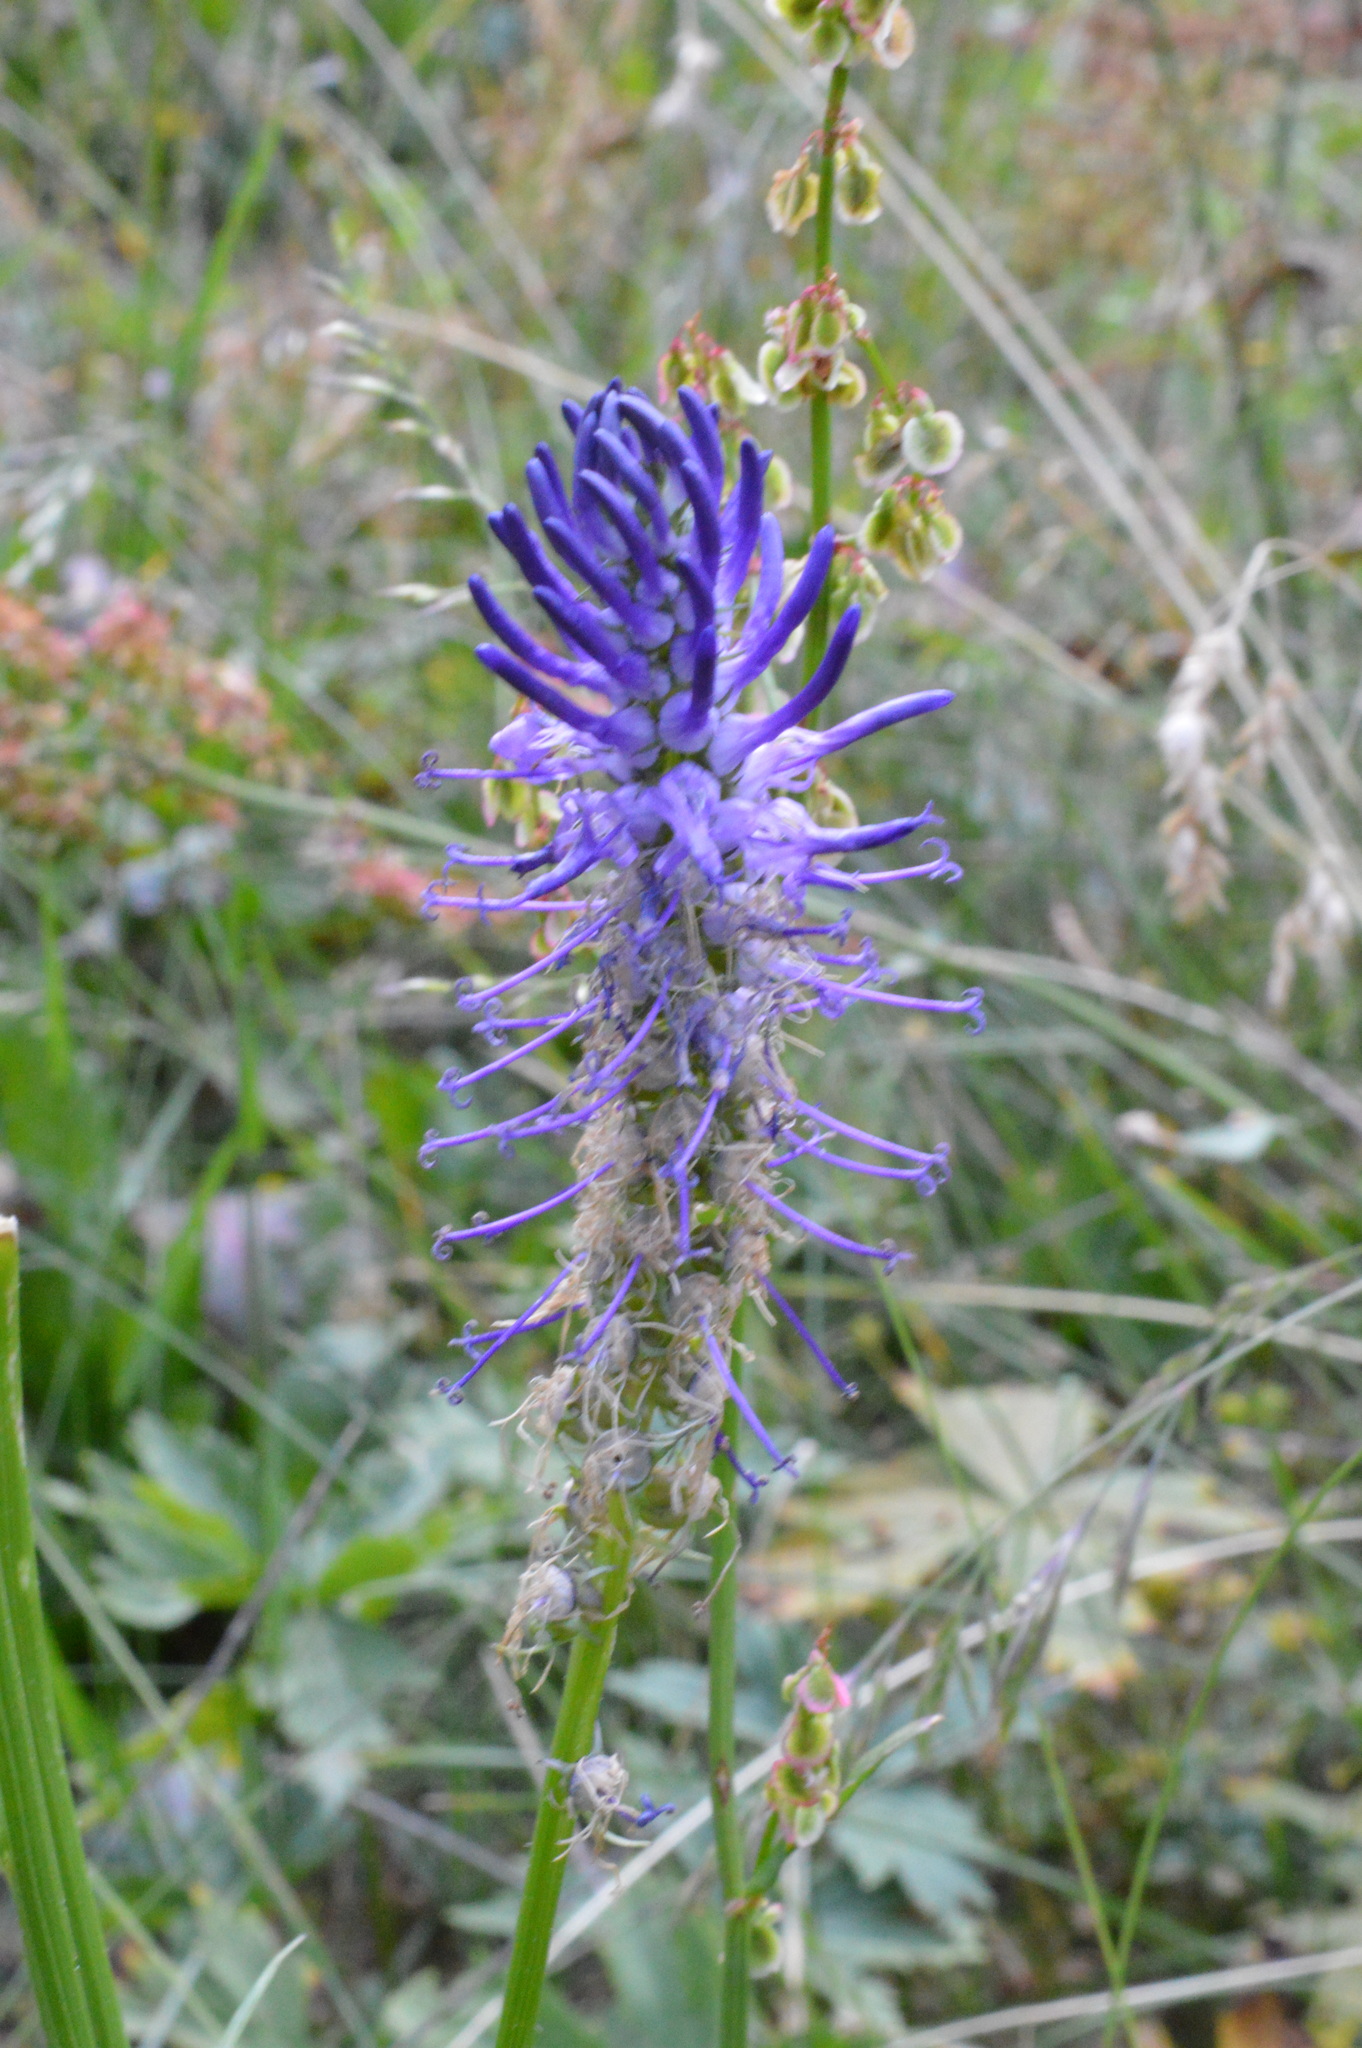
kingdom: Plantae
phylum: Tracheophyta
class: Magnoliopsida
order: Asterales
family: Campanulaceae
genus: Phyteuma
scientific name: Phyteuma betonicifolium
